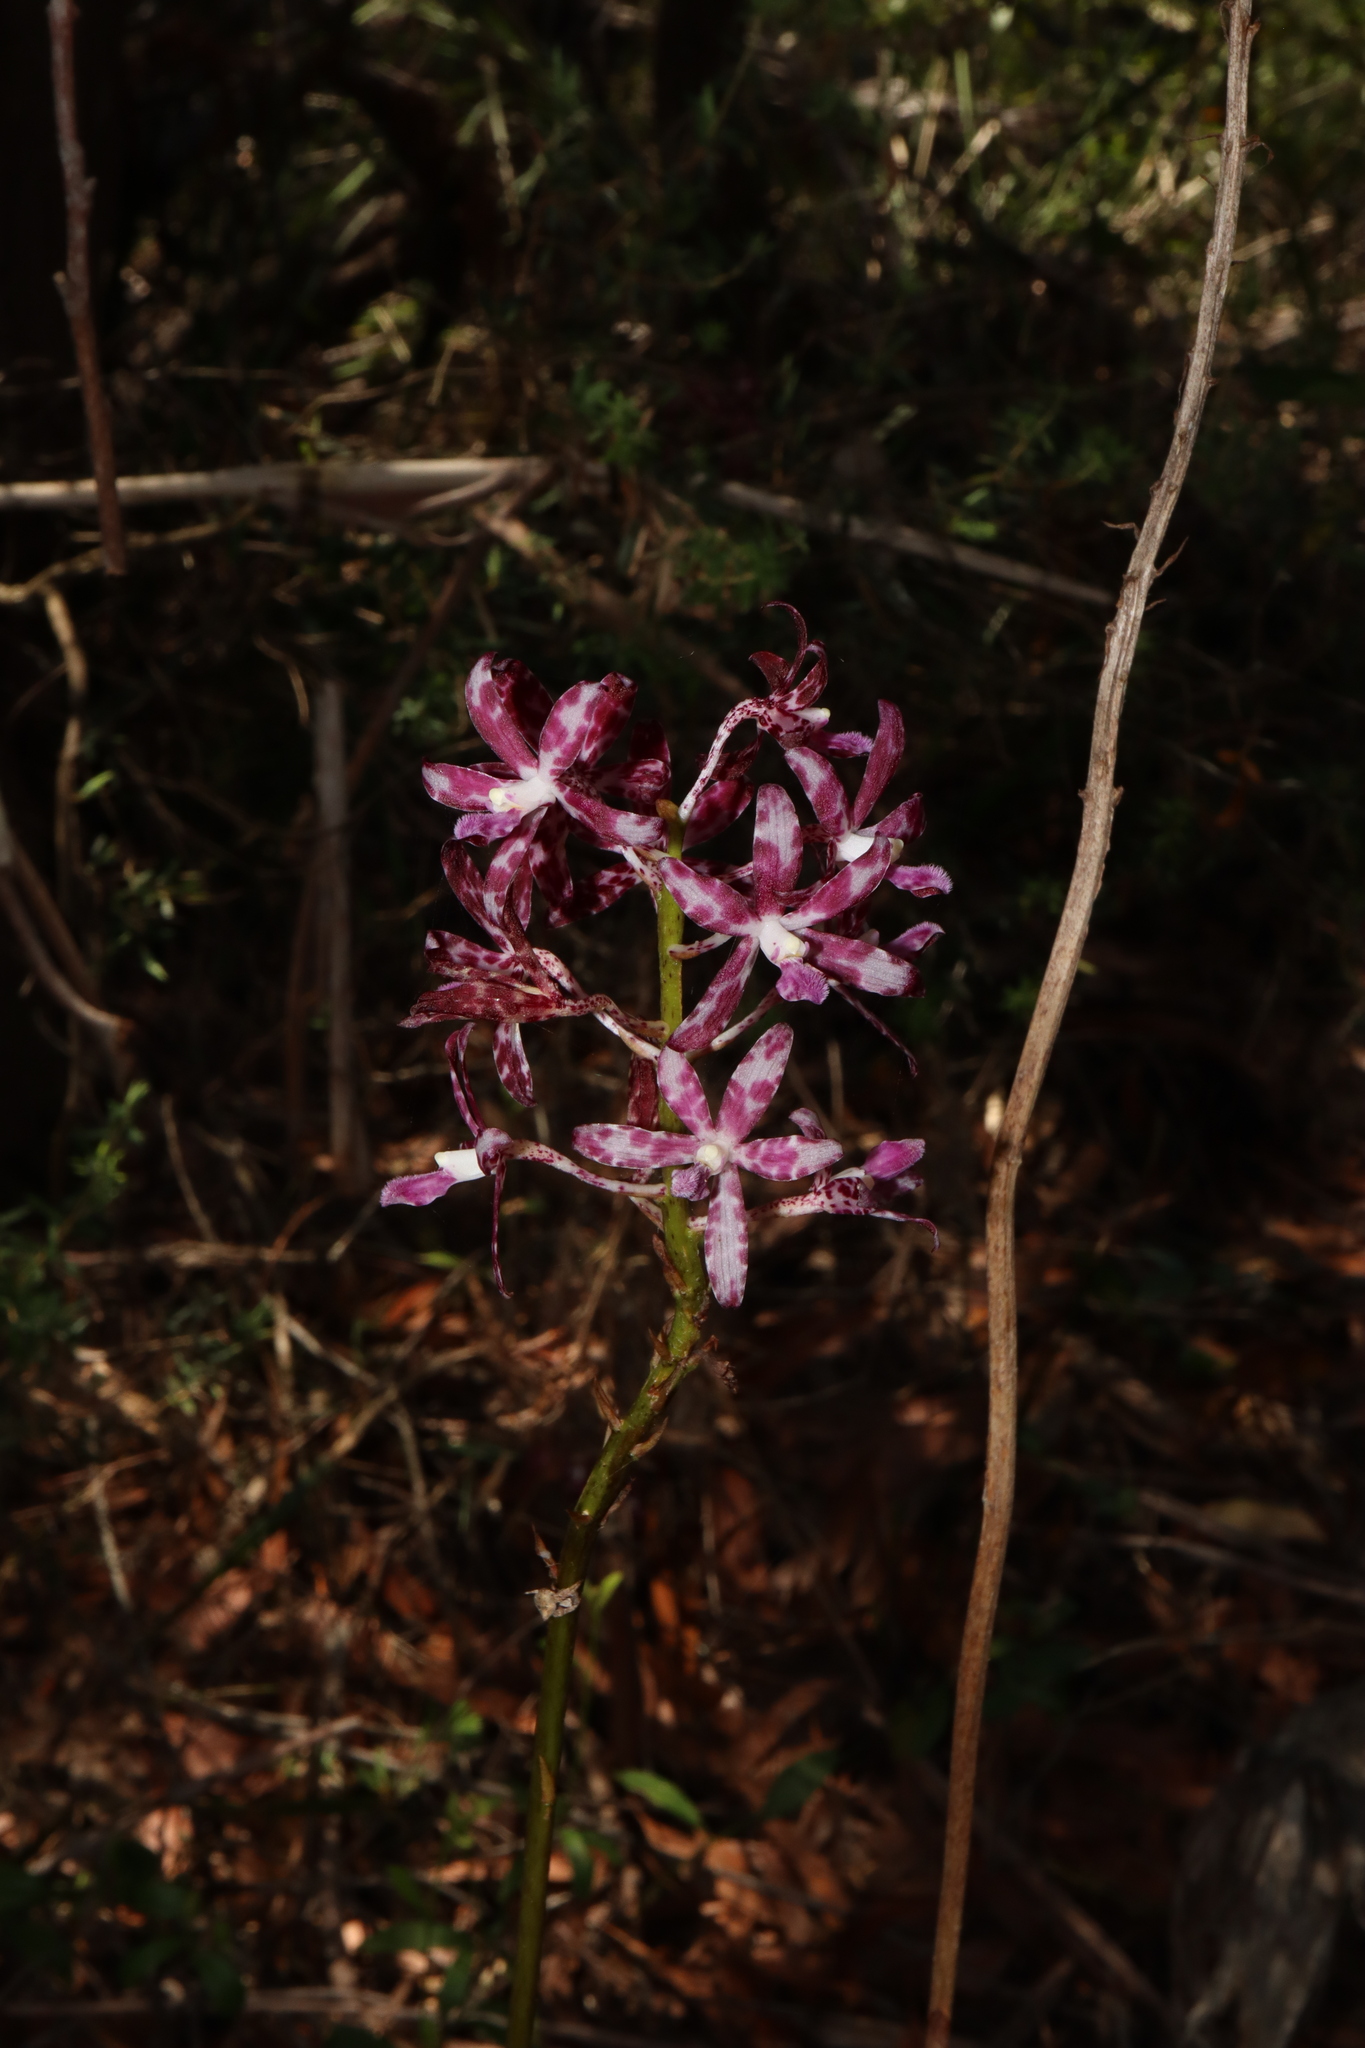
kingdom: Plantae
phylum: Tracheophyta
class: Liliopsida
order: Asparagales
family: Orchidaceae
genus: Dipodium
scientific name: Dipodium variegatum
